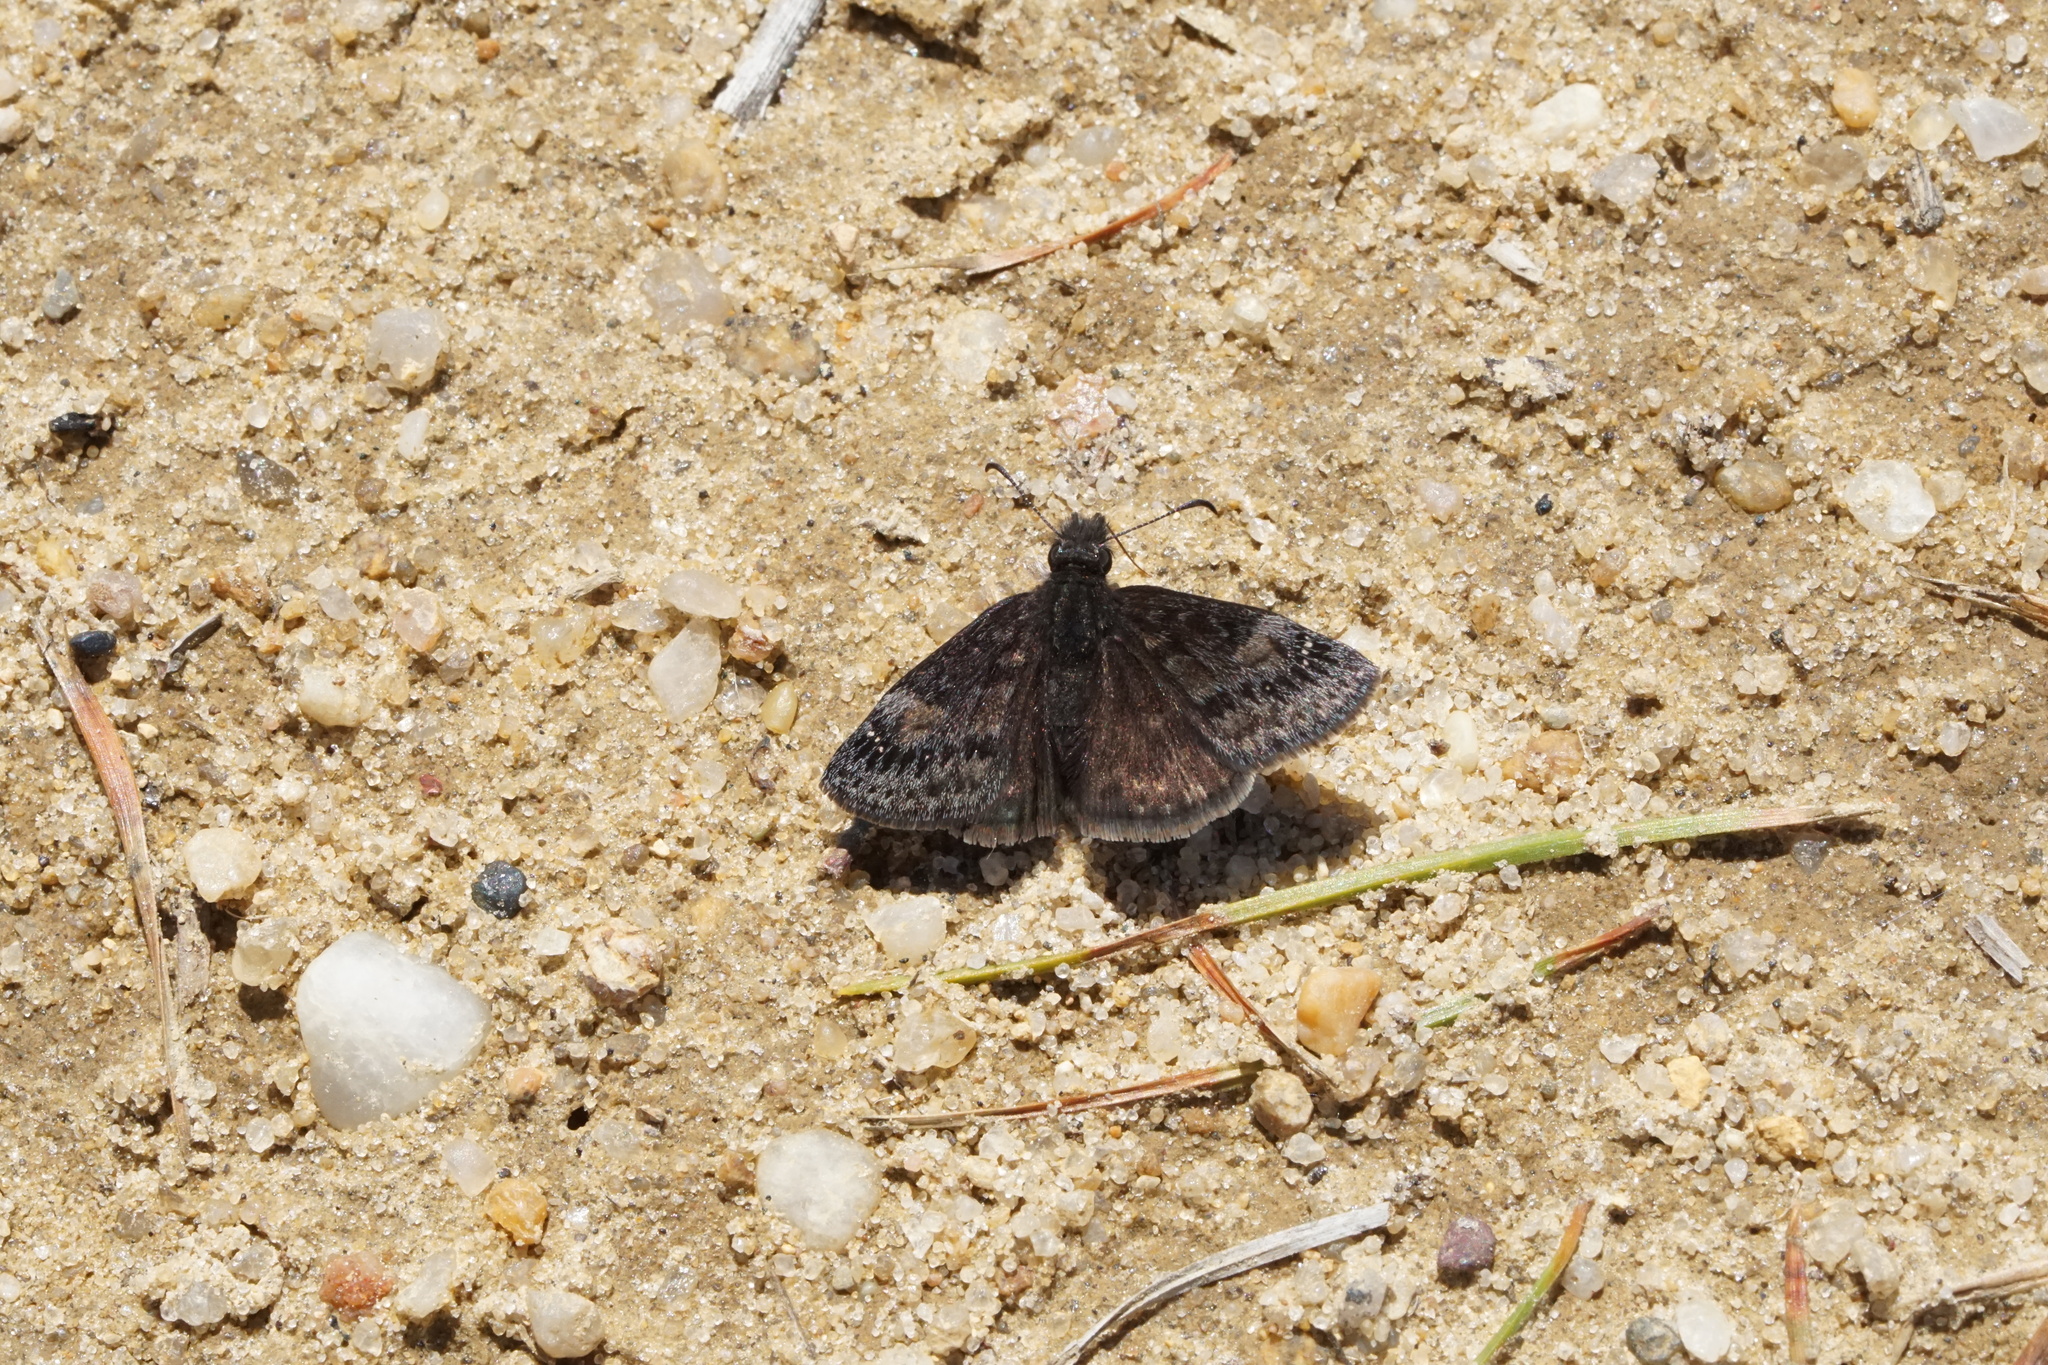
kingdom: Animalia
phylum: Arthropoda
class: Insecta
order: Lepidoptera
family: Hesperiidae
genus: Erynnis
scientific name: Erynnis baptisiae
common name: Wild indigo duskywing
